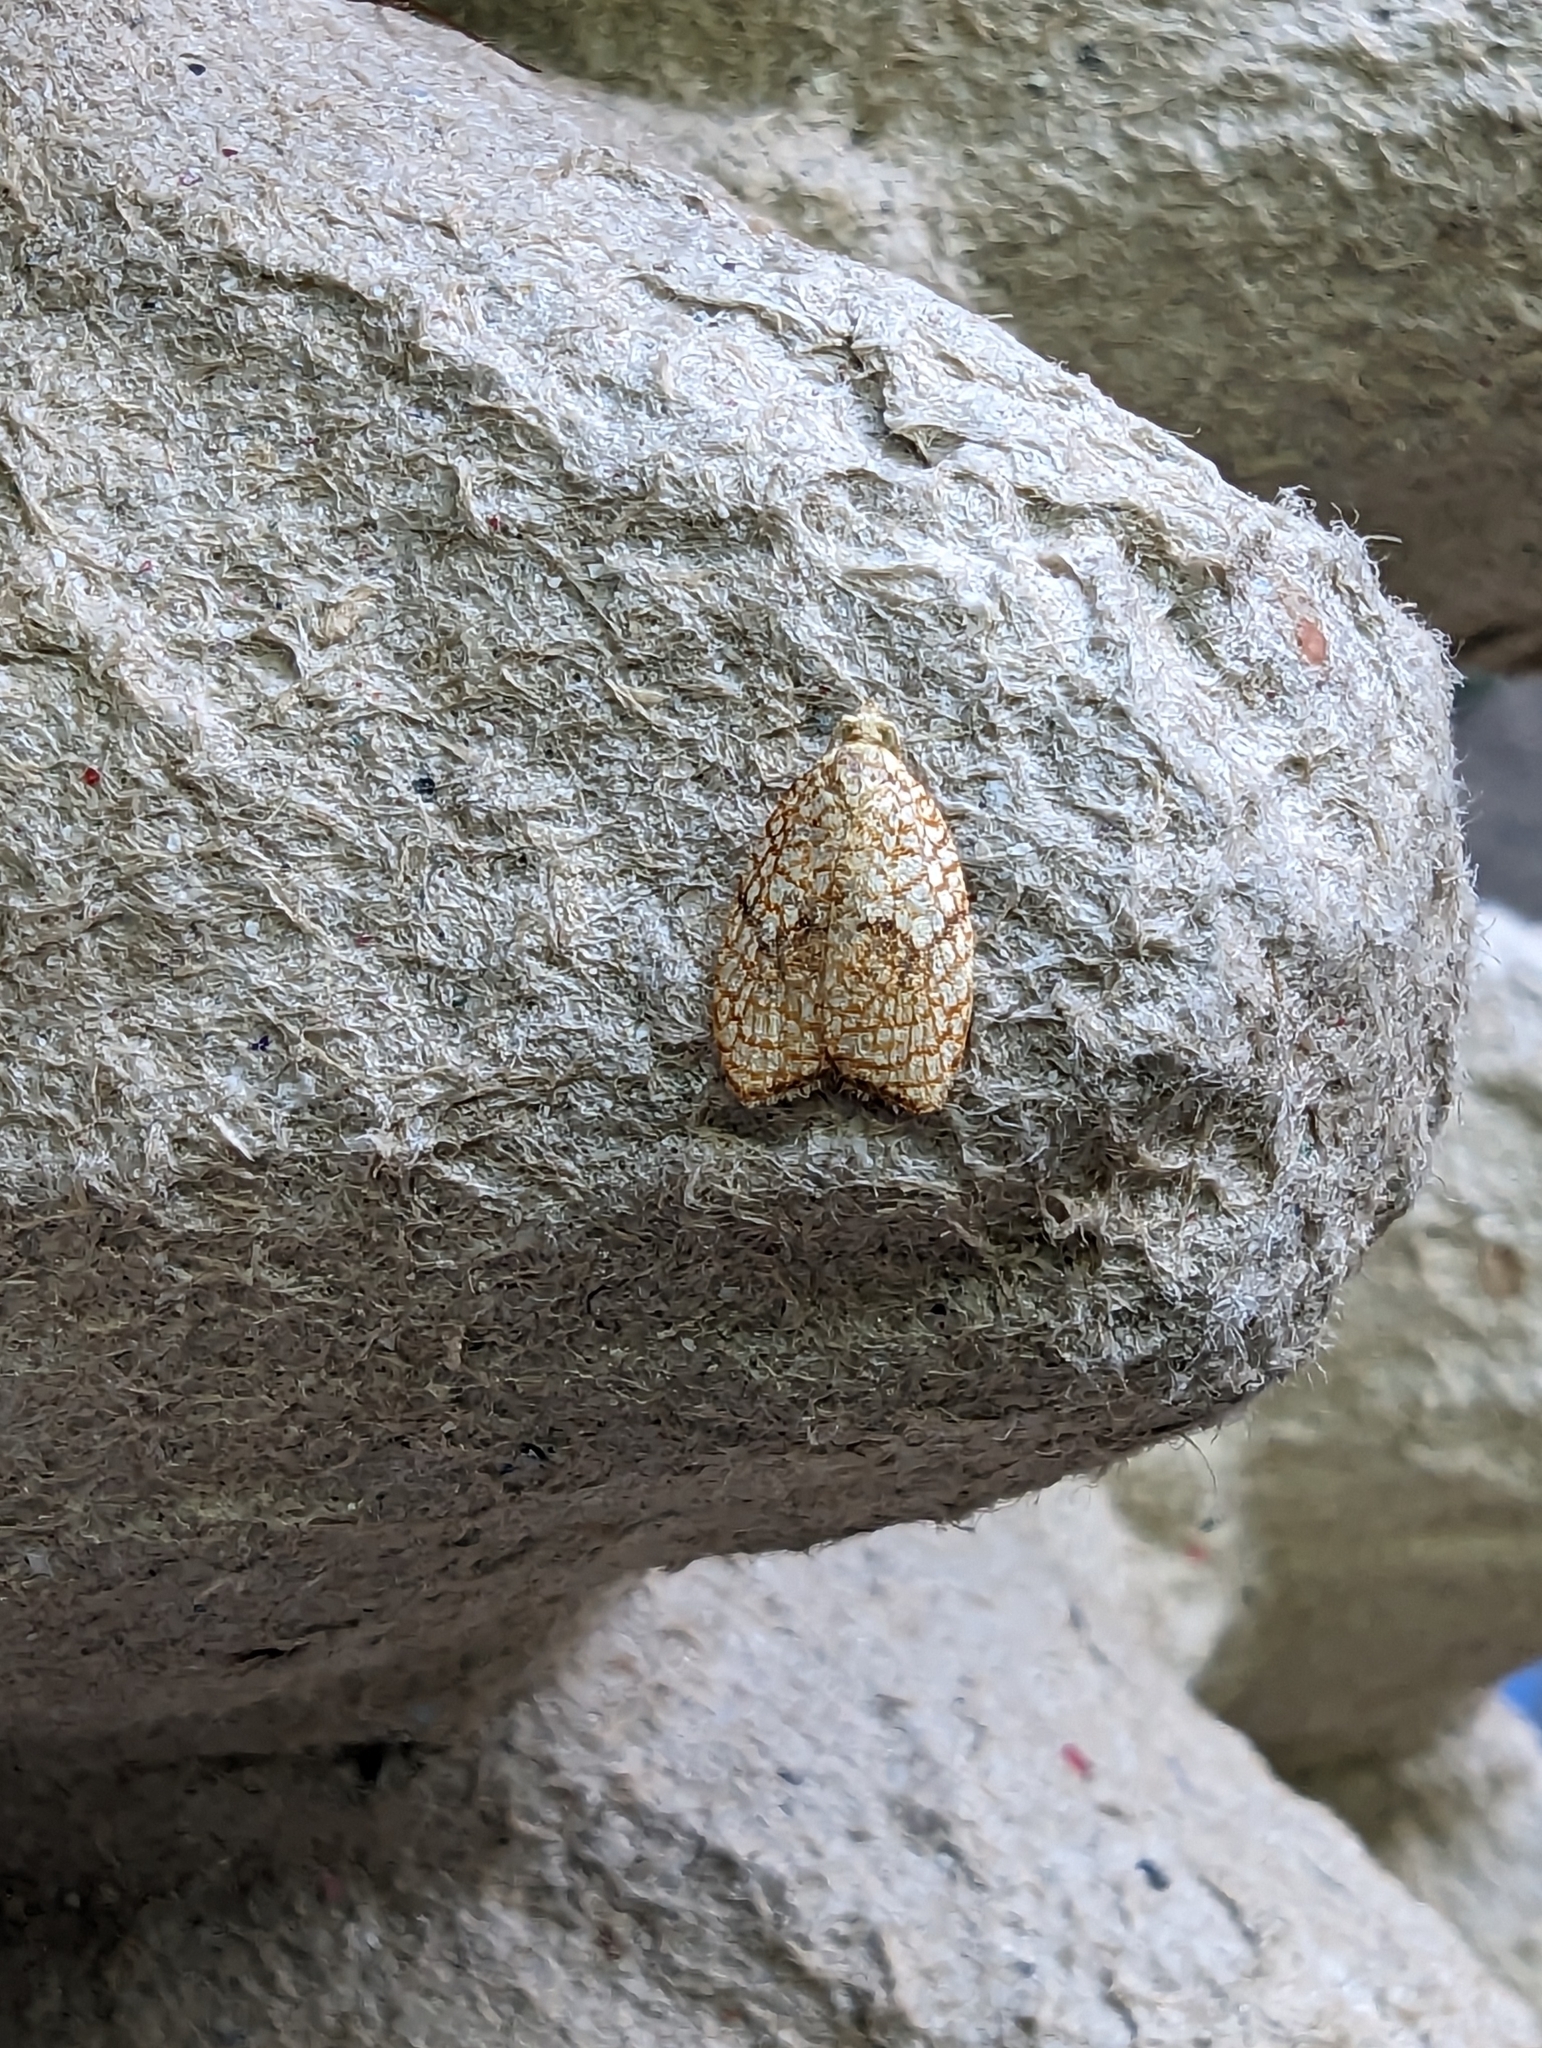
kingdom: Animalia
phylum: Arthropoda
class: Insecta
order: Lepidoptera
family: Tortricidae
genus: Acleris
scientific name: Acleris forsskaleana
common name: Maple button
